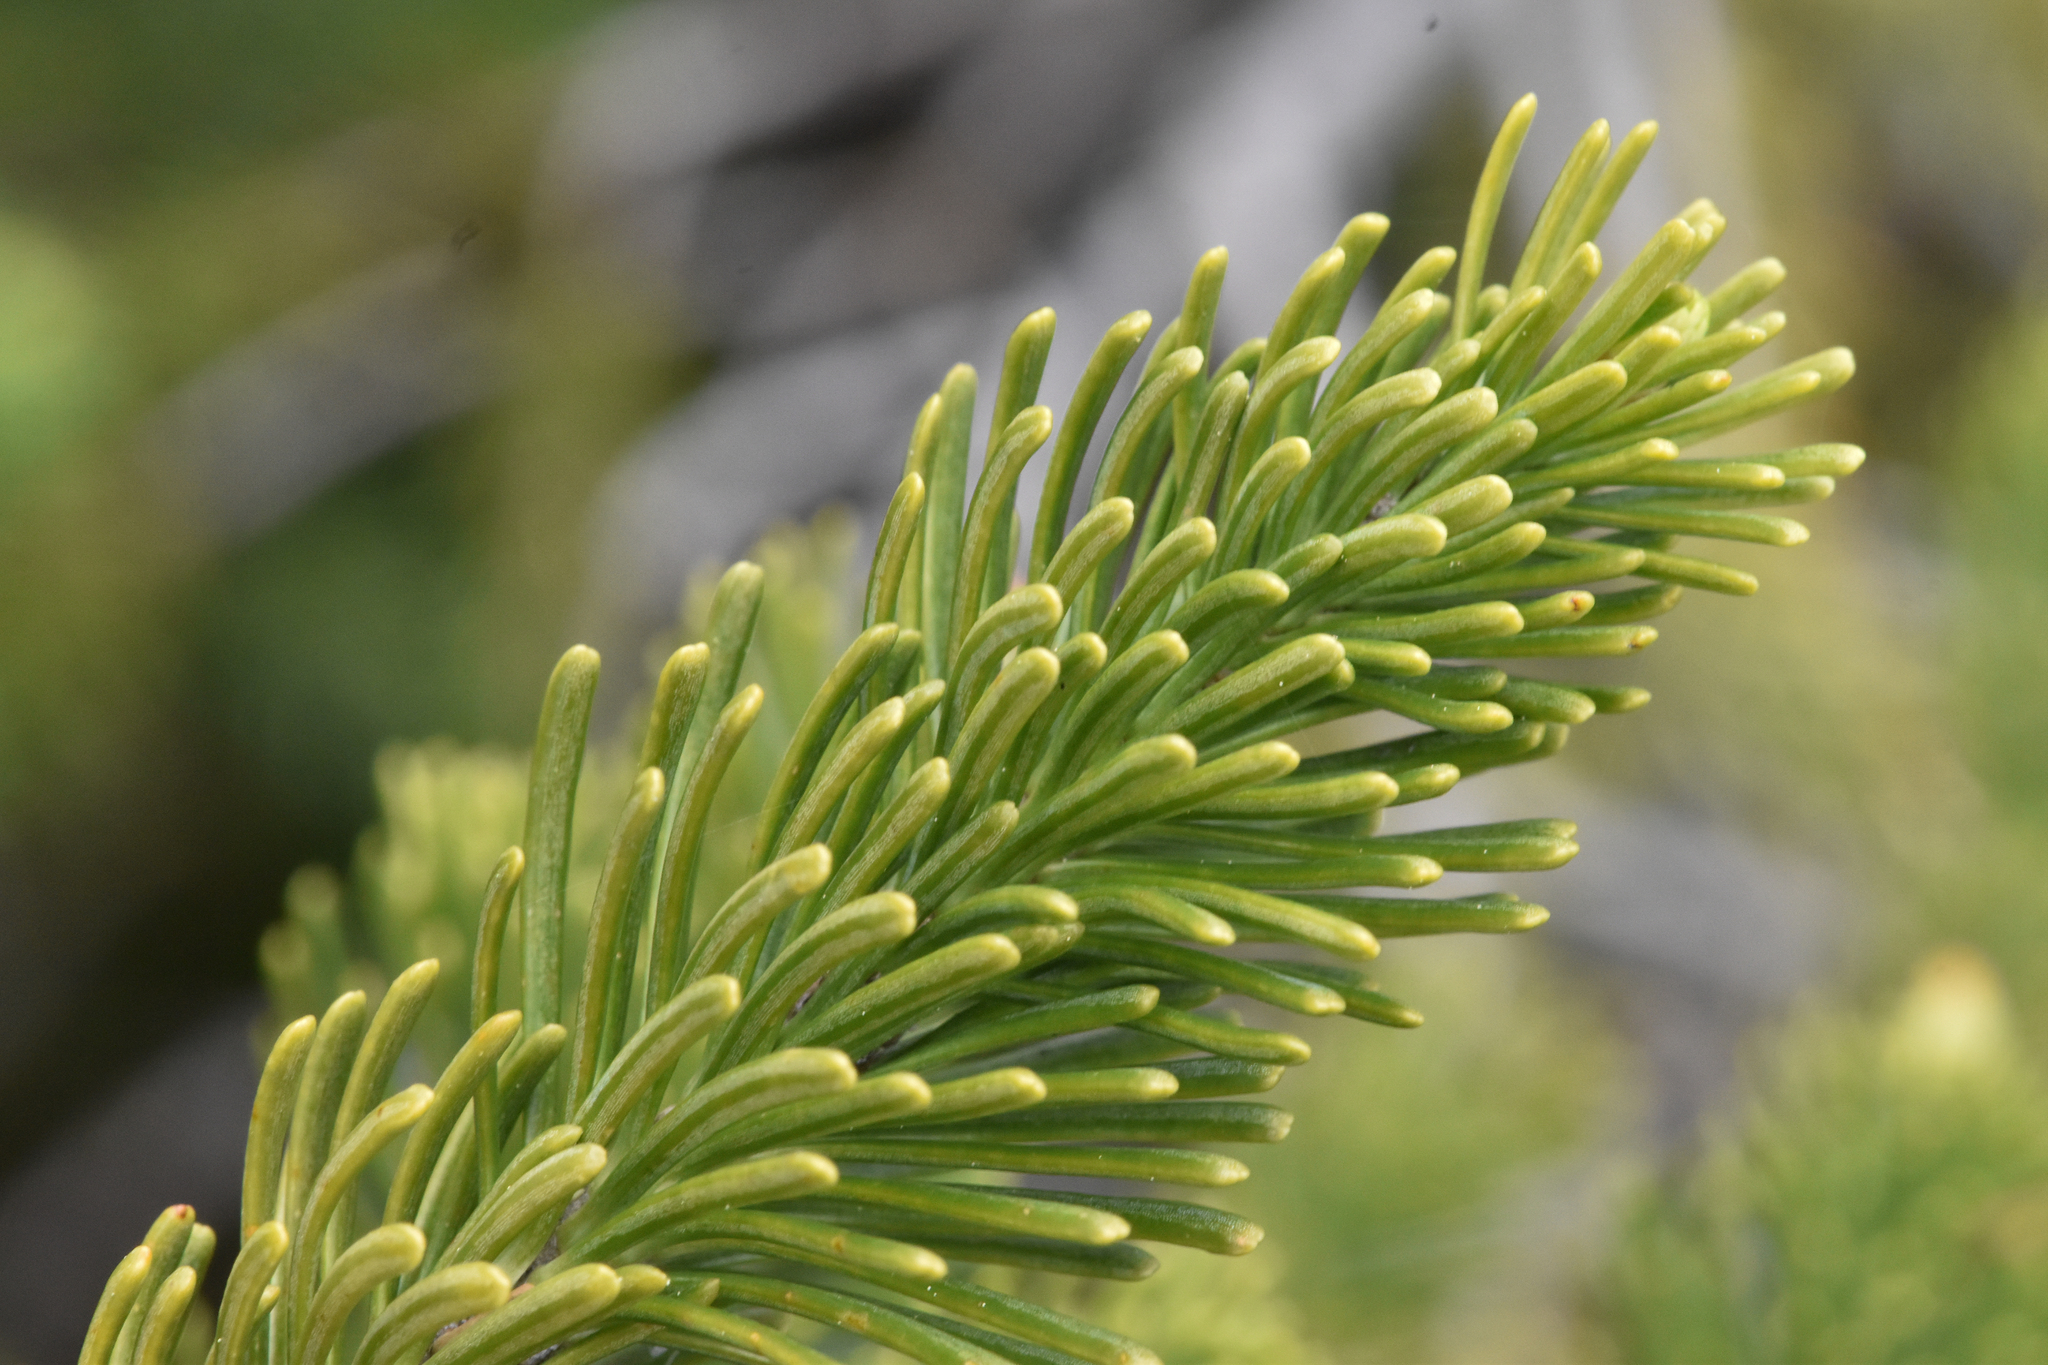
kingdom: Plantae
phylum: Tracheophyta
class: Pinopsida
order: Pinales
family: Pinaceae
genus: Abies
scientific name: Abies lasiocarpa
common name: Subalpine fir
